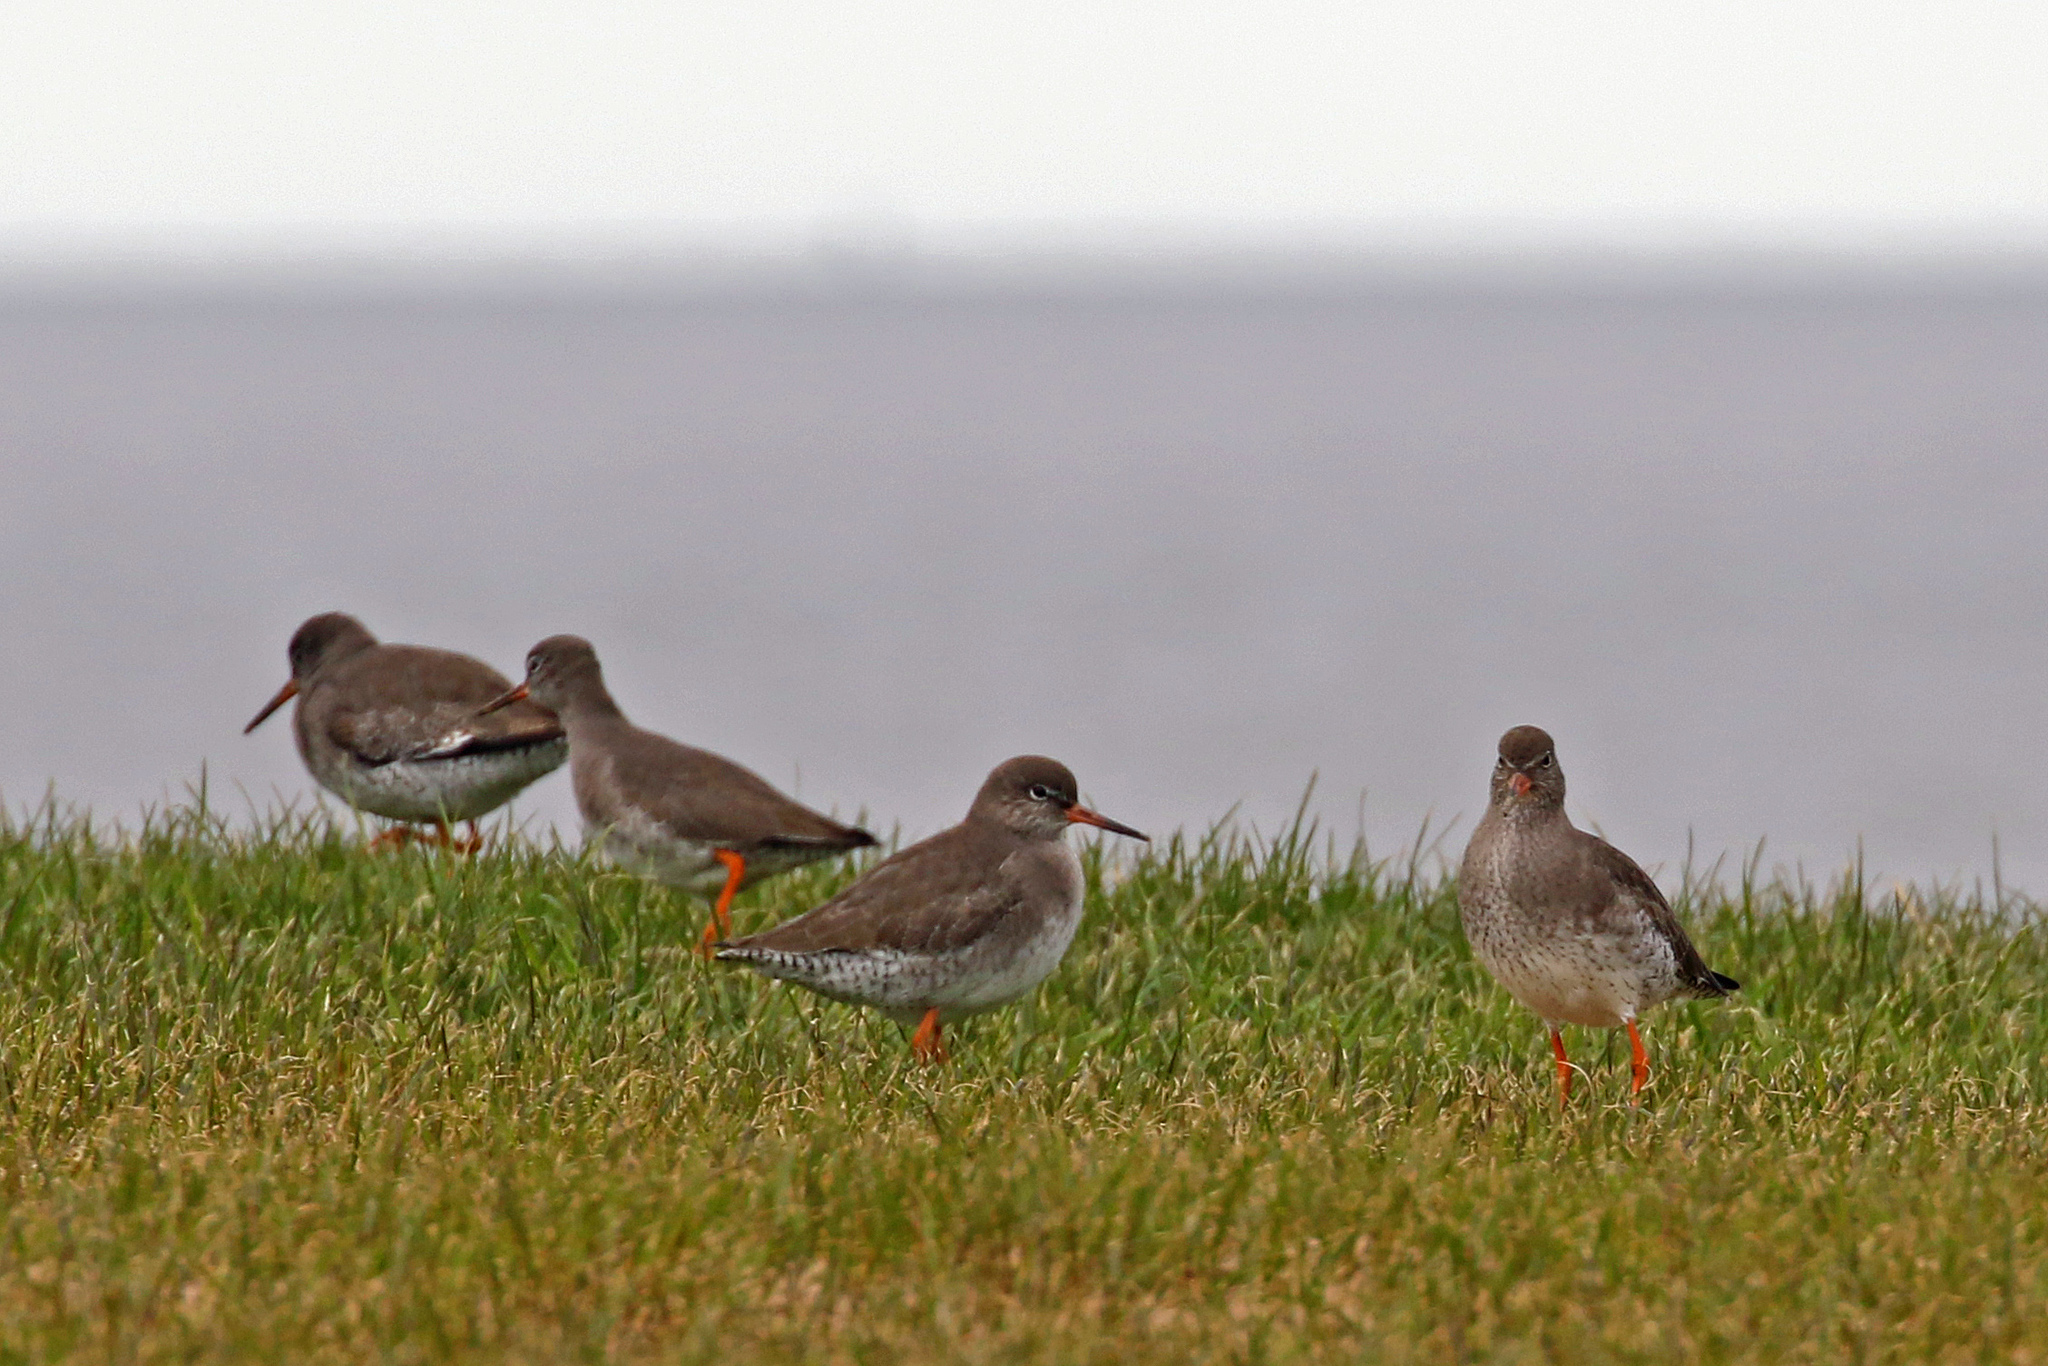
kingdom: Animalia
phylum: Chordata
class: Aves
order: Charadriiformes
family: Scolopacidae
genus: Tringa
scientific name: Tringa totanus
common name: Common redshank
